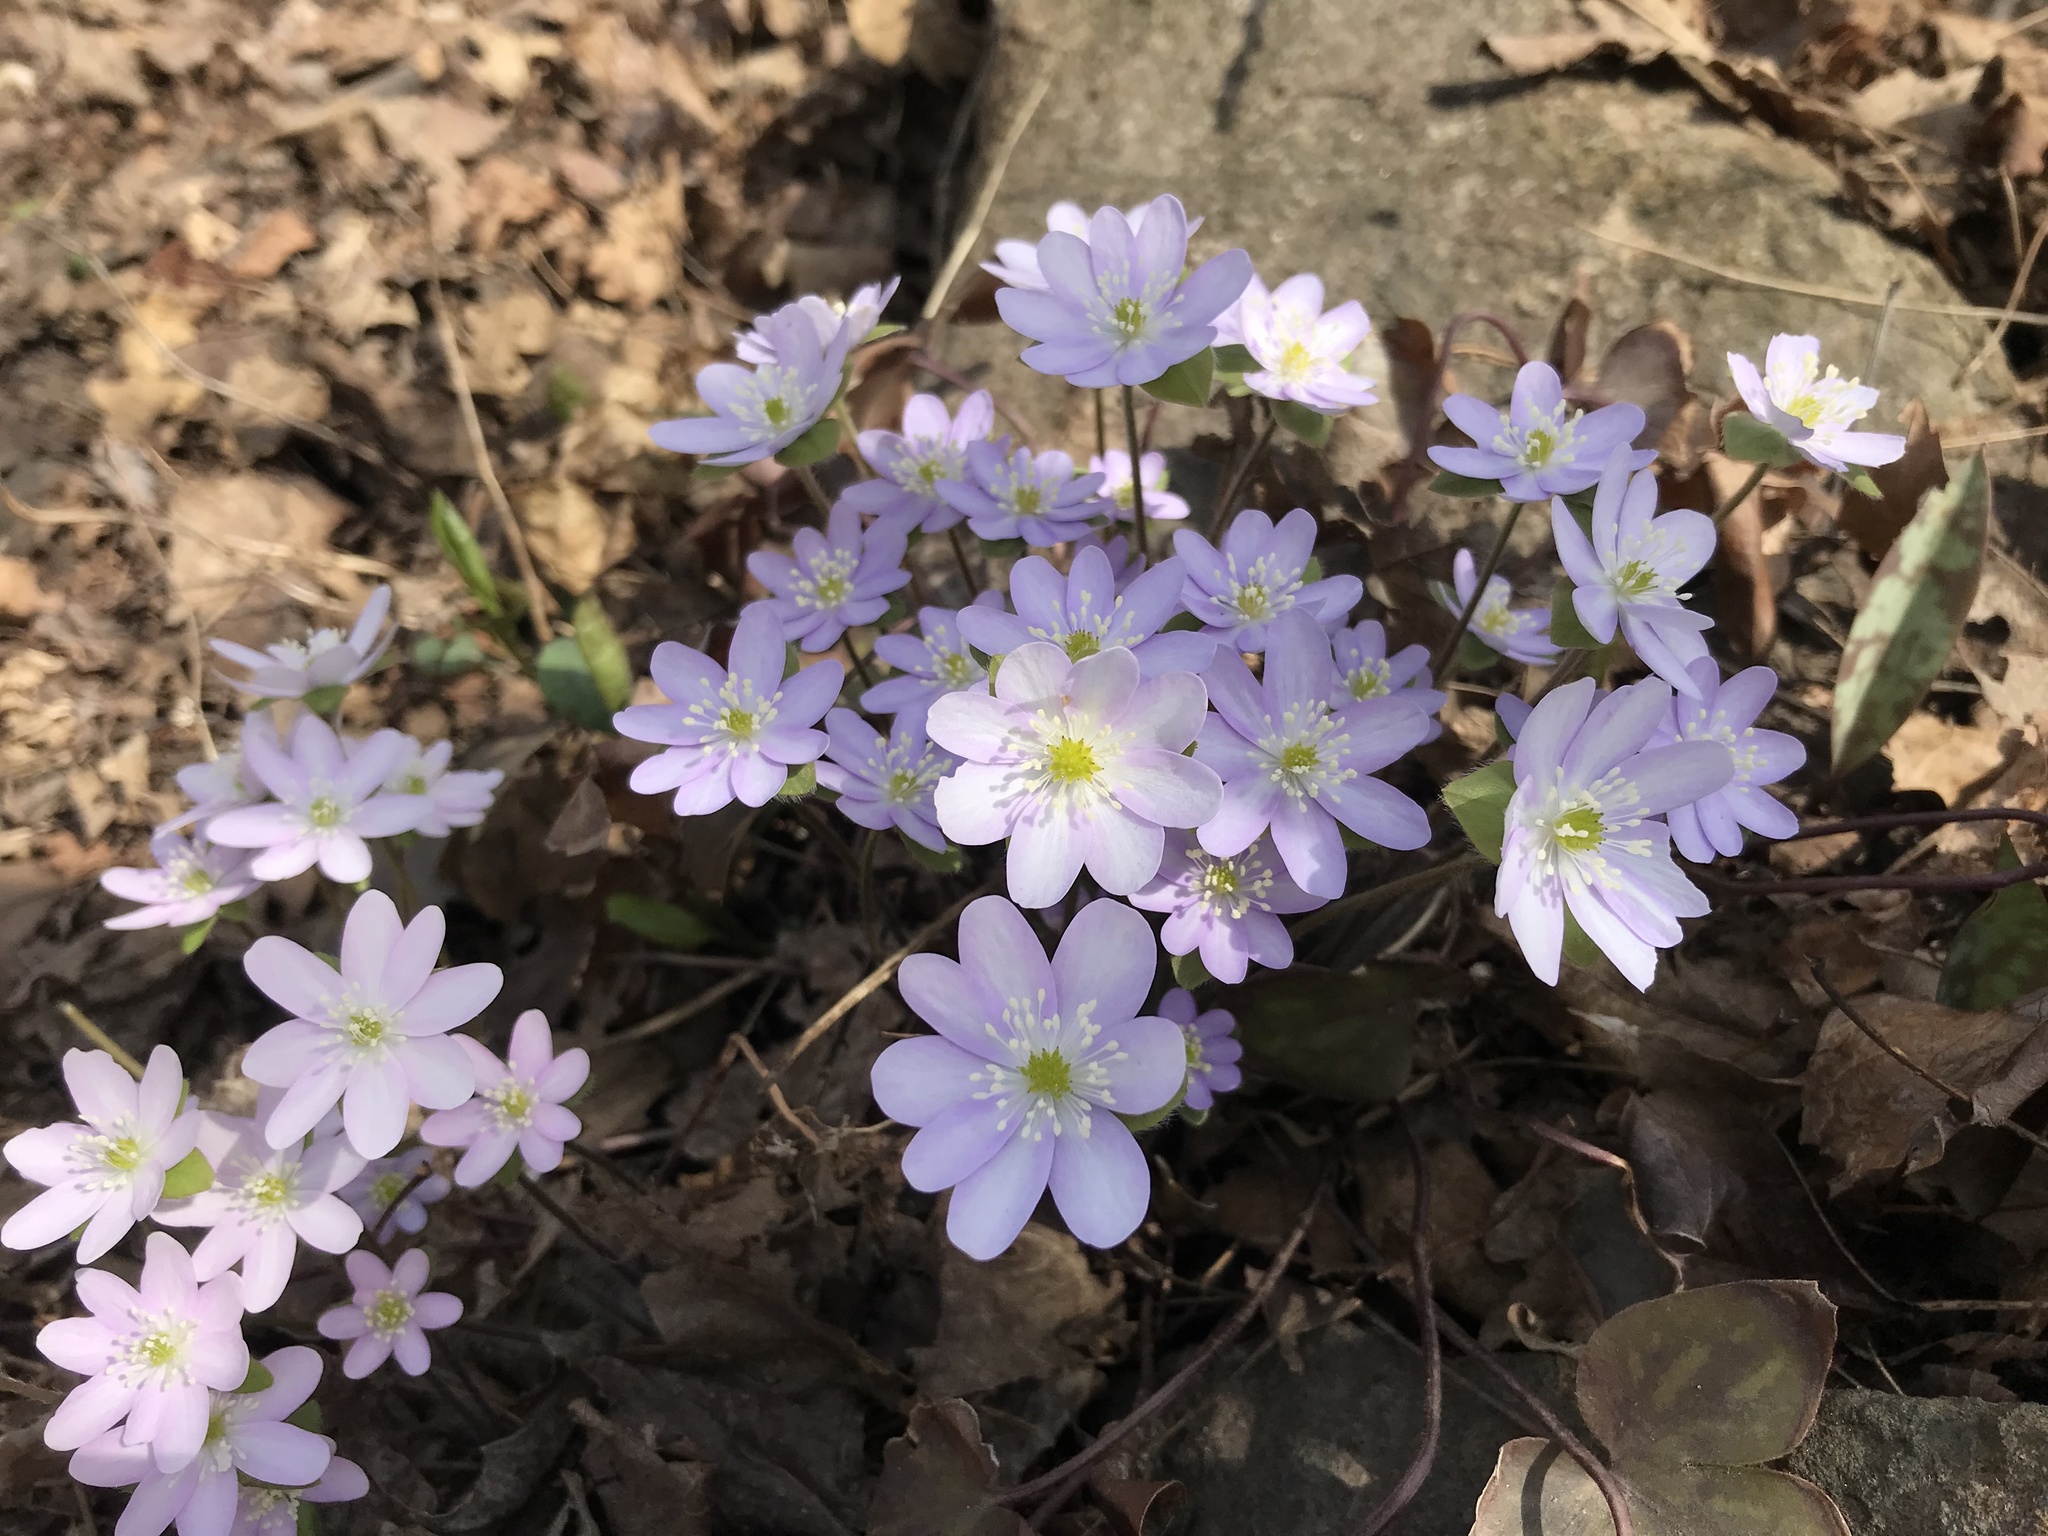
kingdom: Plantae
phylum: Tracheophyta
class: Magnoliopsida
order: Ranunculales
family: Ranunculaceae
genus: Hepatica
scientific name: Hepatica acutiloba
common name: Sharp-lobed hepatica
